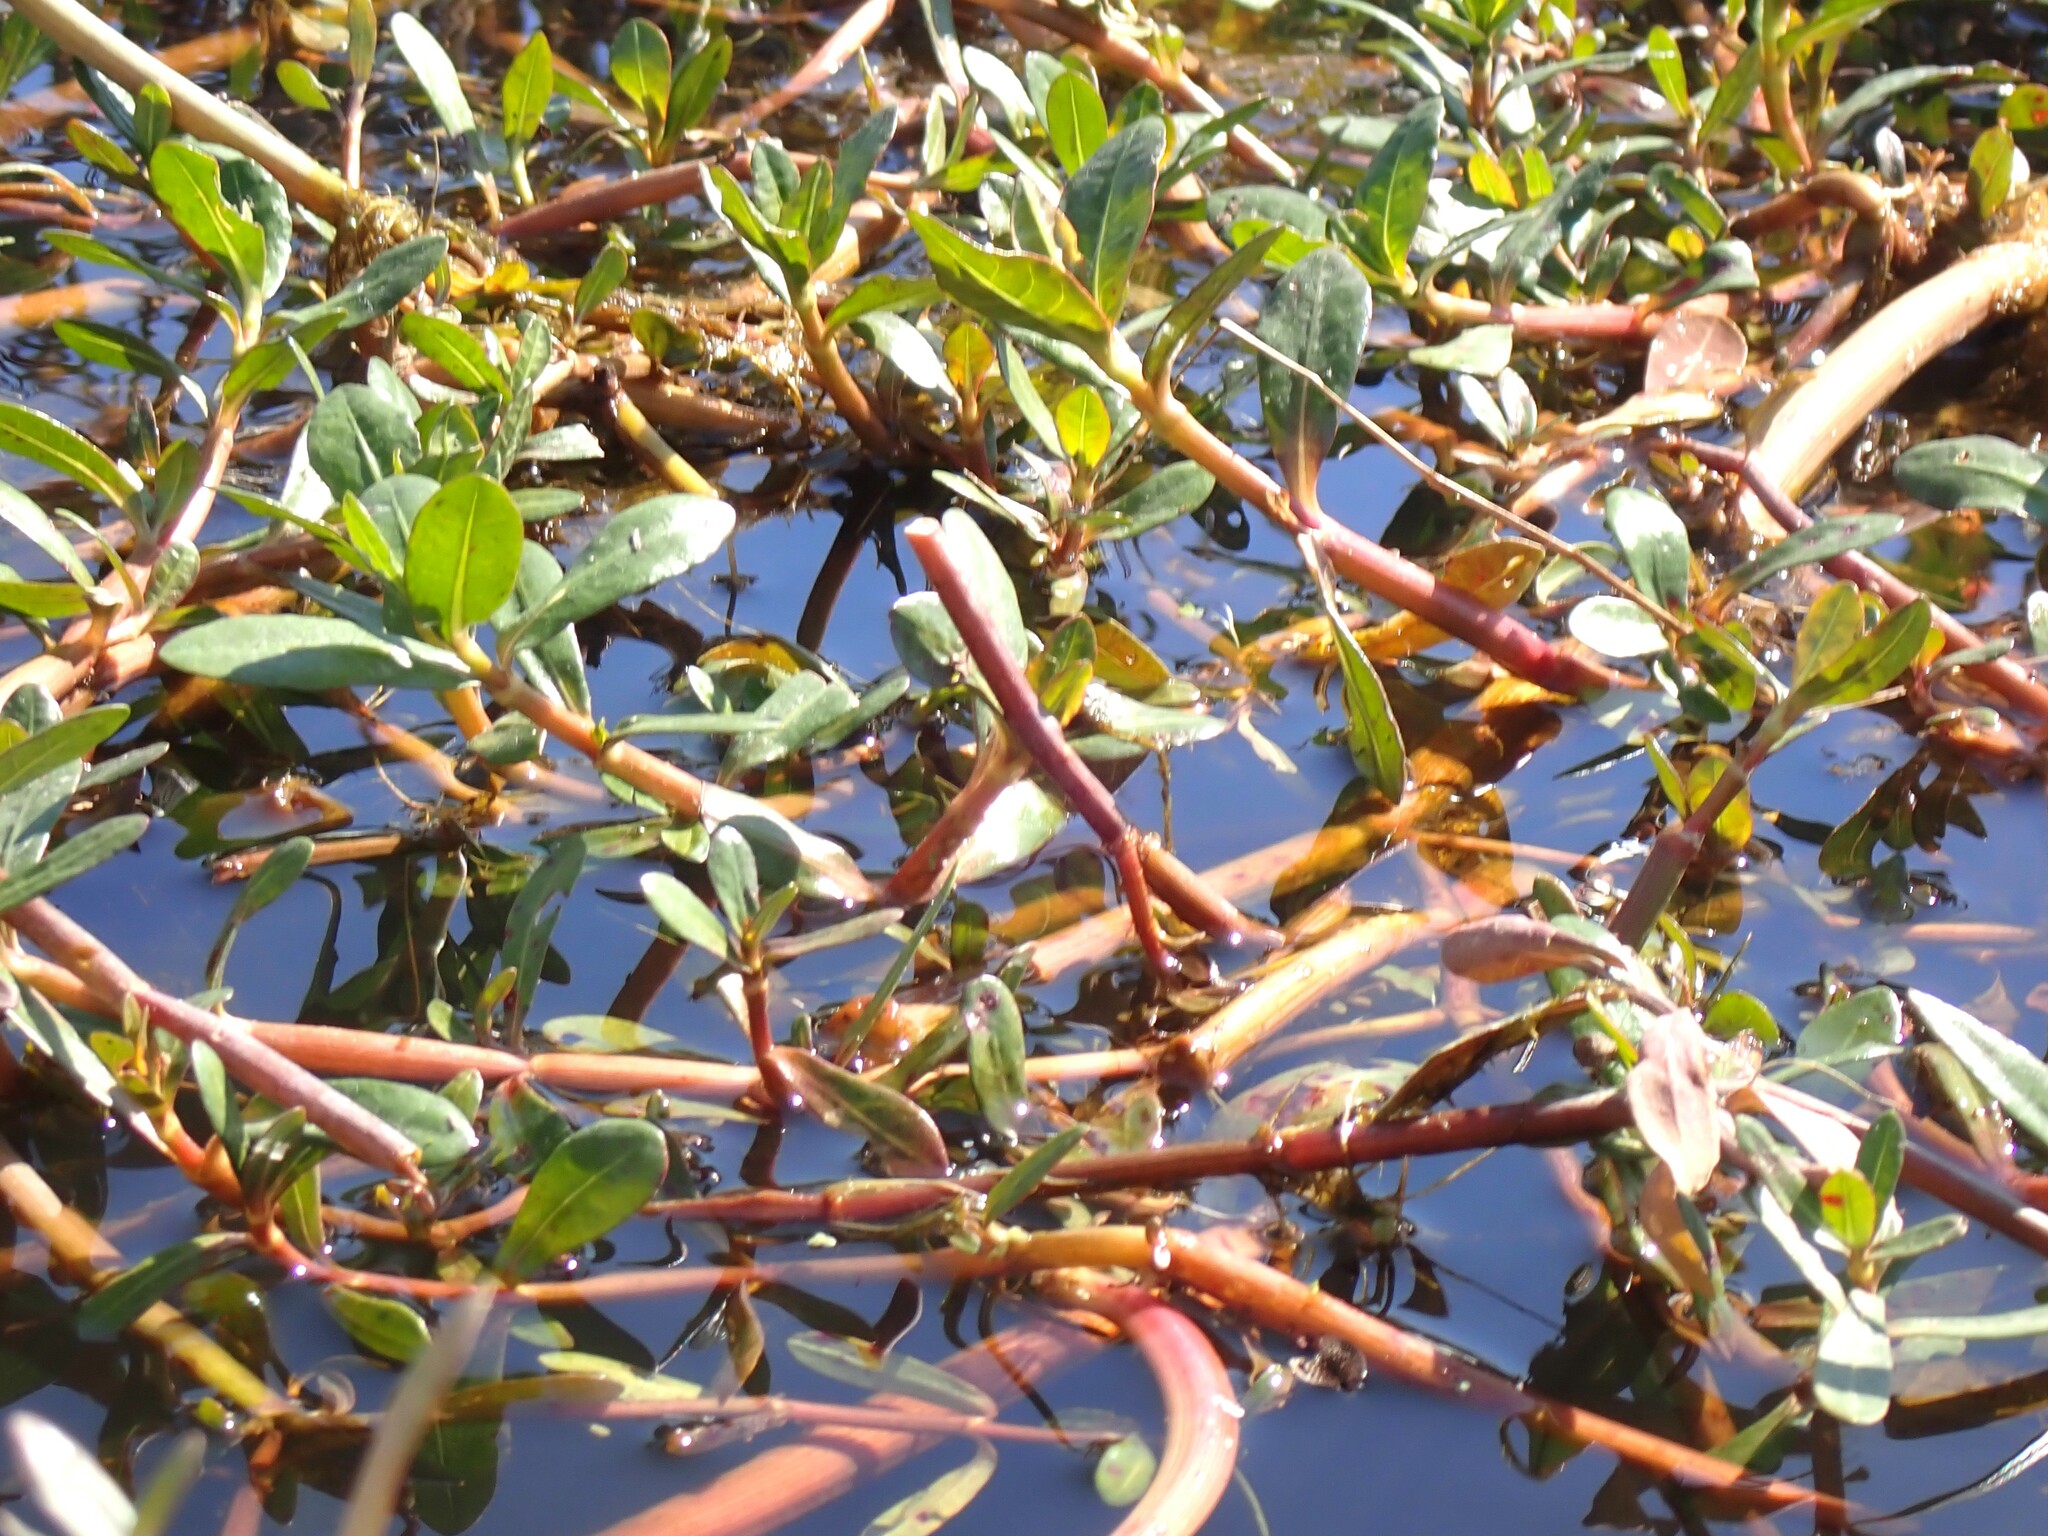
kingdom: Plantae
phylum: Tracheophyta
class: Magnoliopsida
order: Caryophyllales
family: Amaranthaceae
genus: Alternanthera
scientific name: Alternanthera philoxeroides
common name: Alligatorweed
